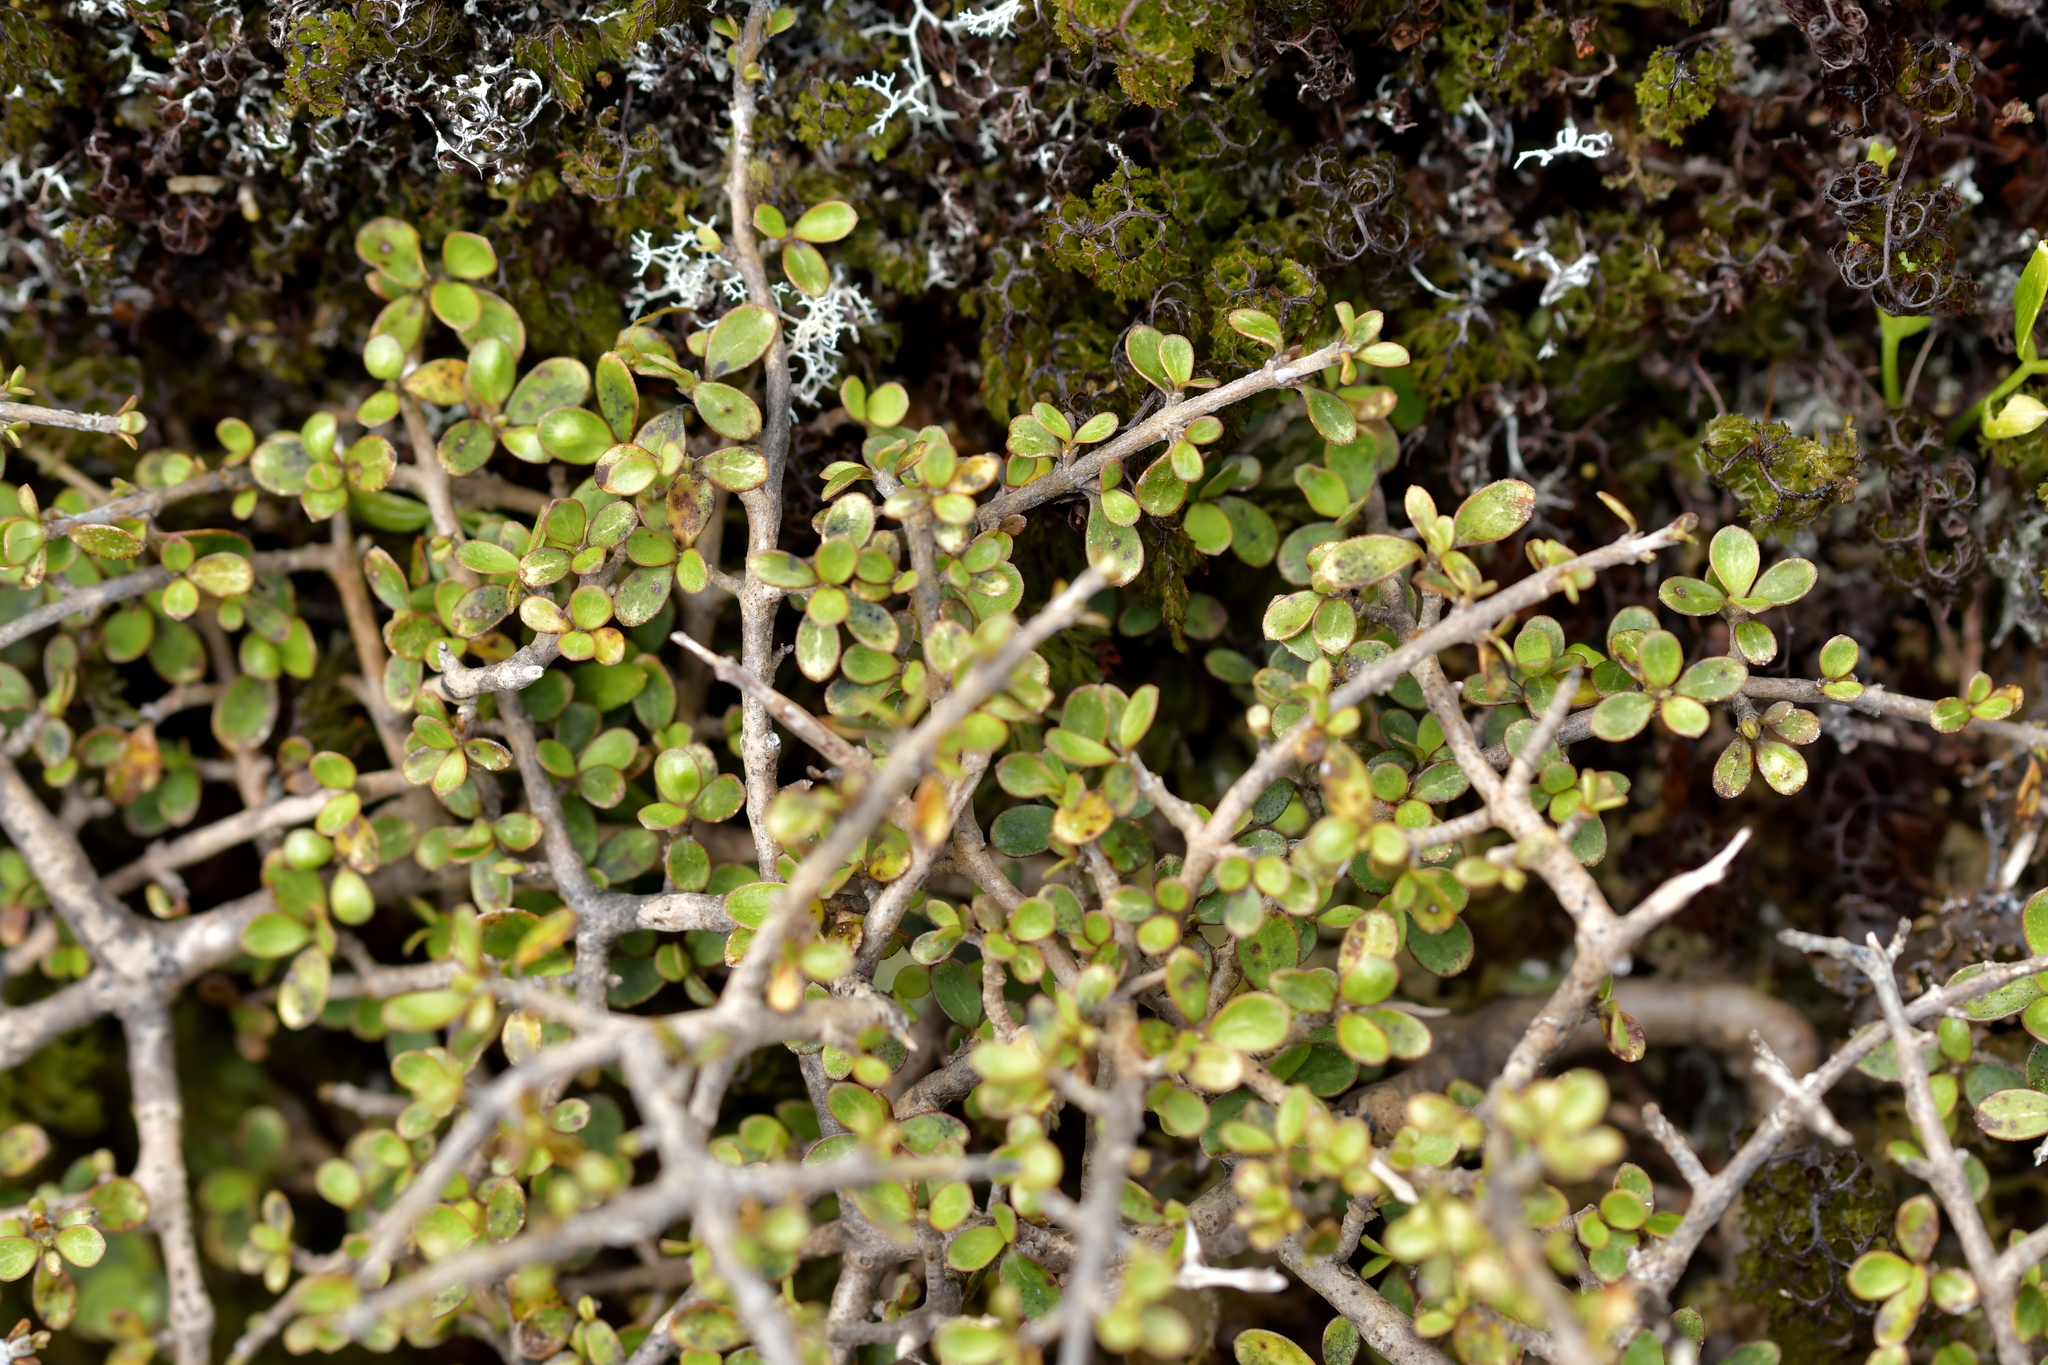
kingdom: Plantae
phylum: Tracheophyta
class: Magnoliopsida
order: Gentianales
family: Rubiaceae
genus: Coprosma
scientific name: Coprosma dumosa
